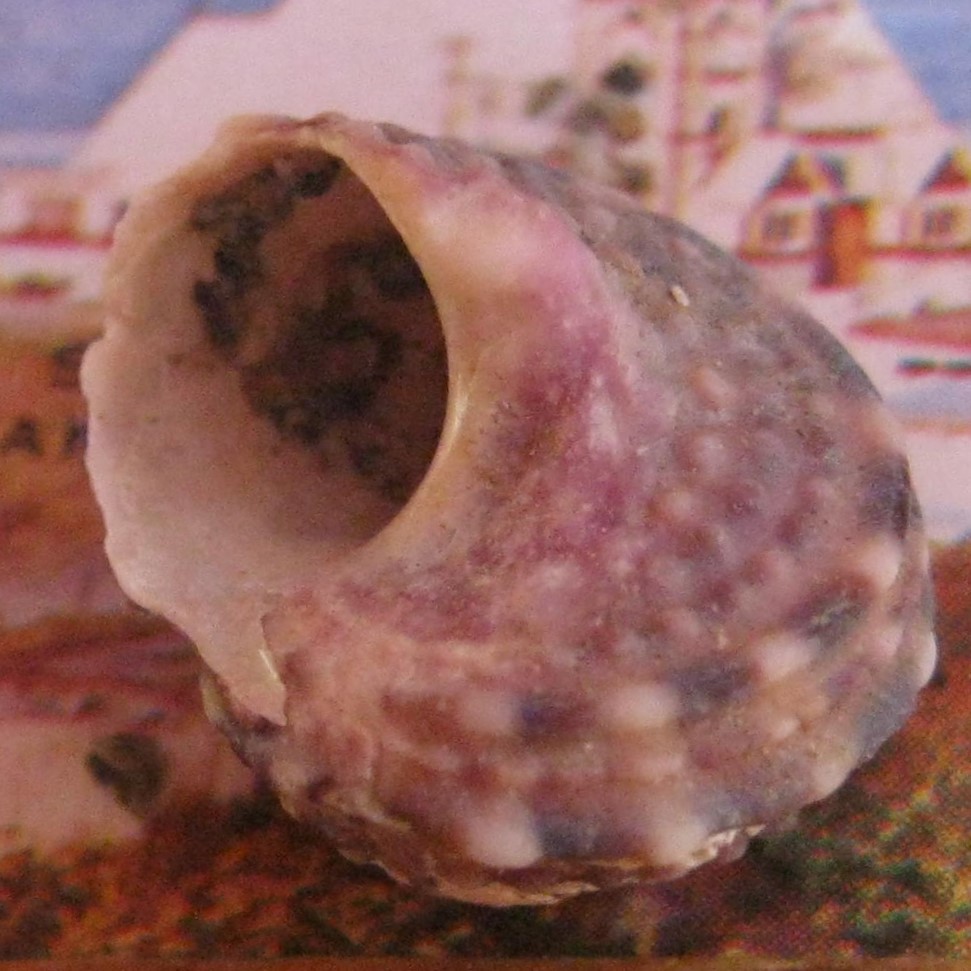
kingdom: Animalia
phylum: Mollusca
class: Gastropoda
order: Trochida
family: Turbinidae
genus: Modelia
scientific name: Modelia granosa
